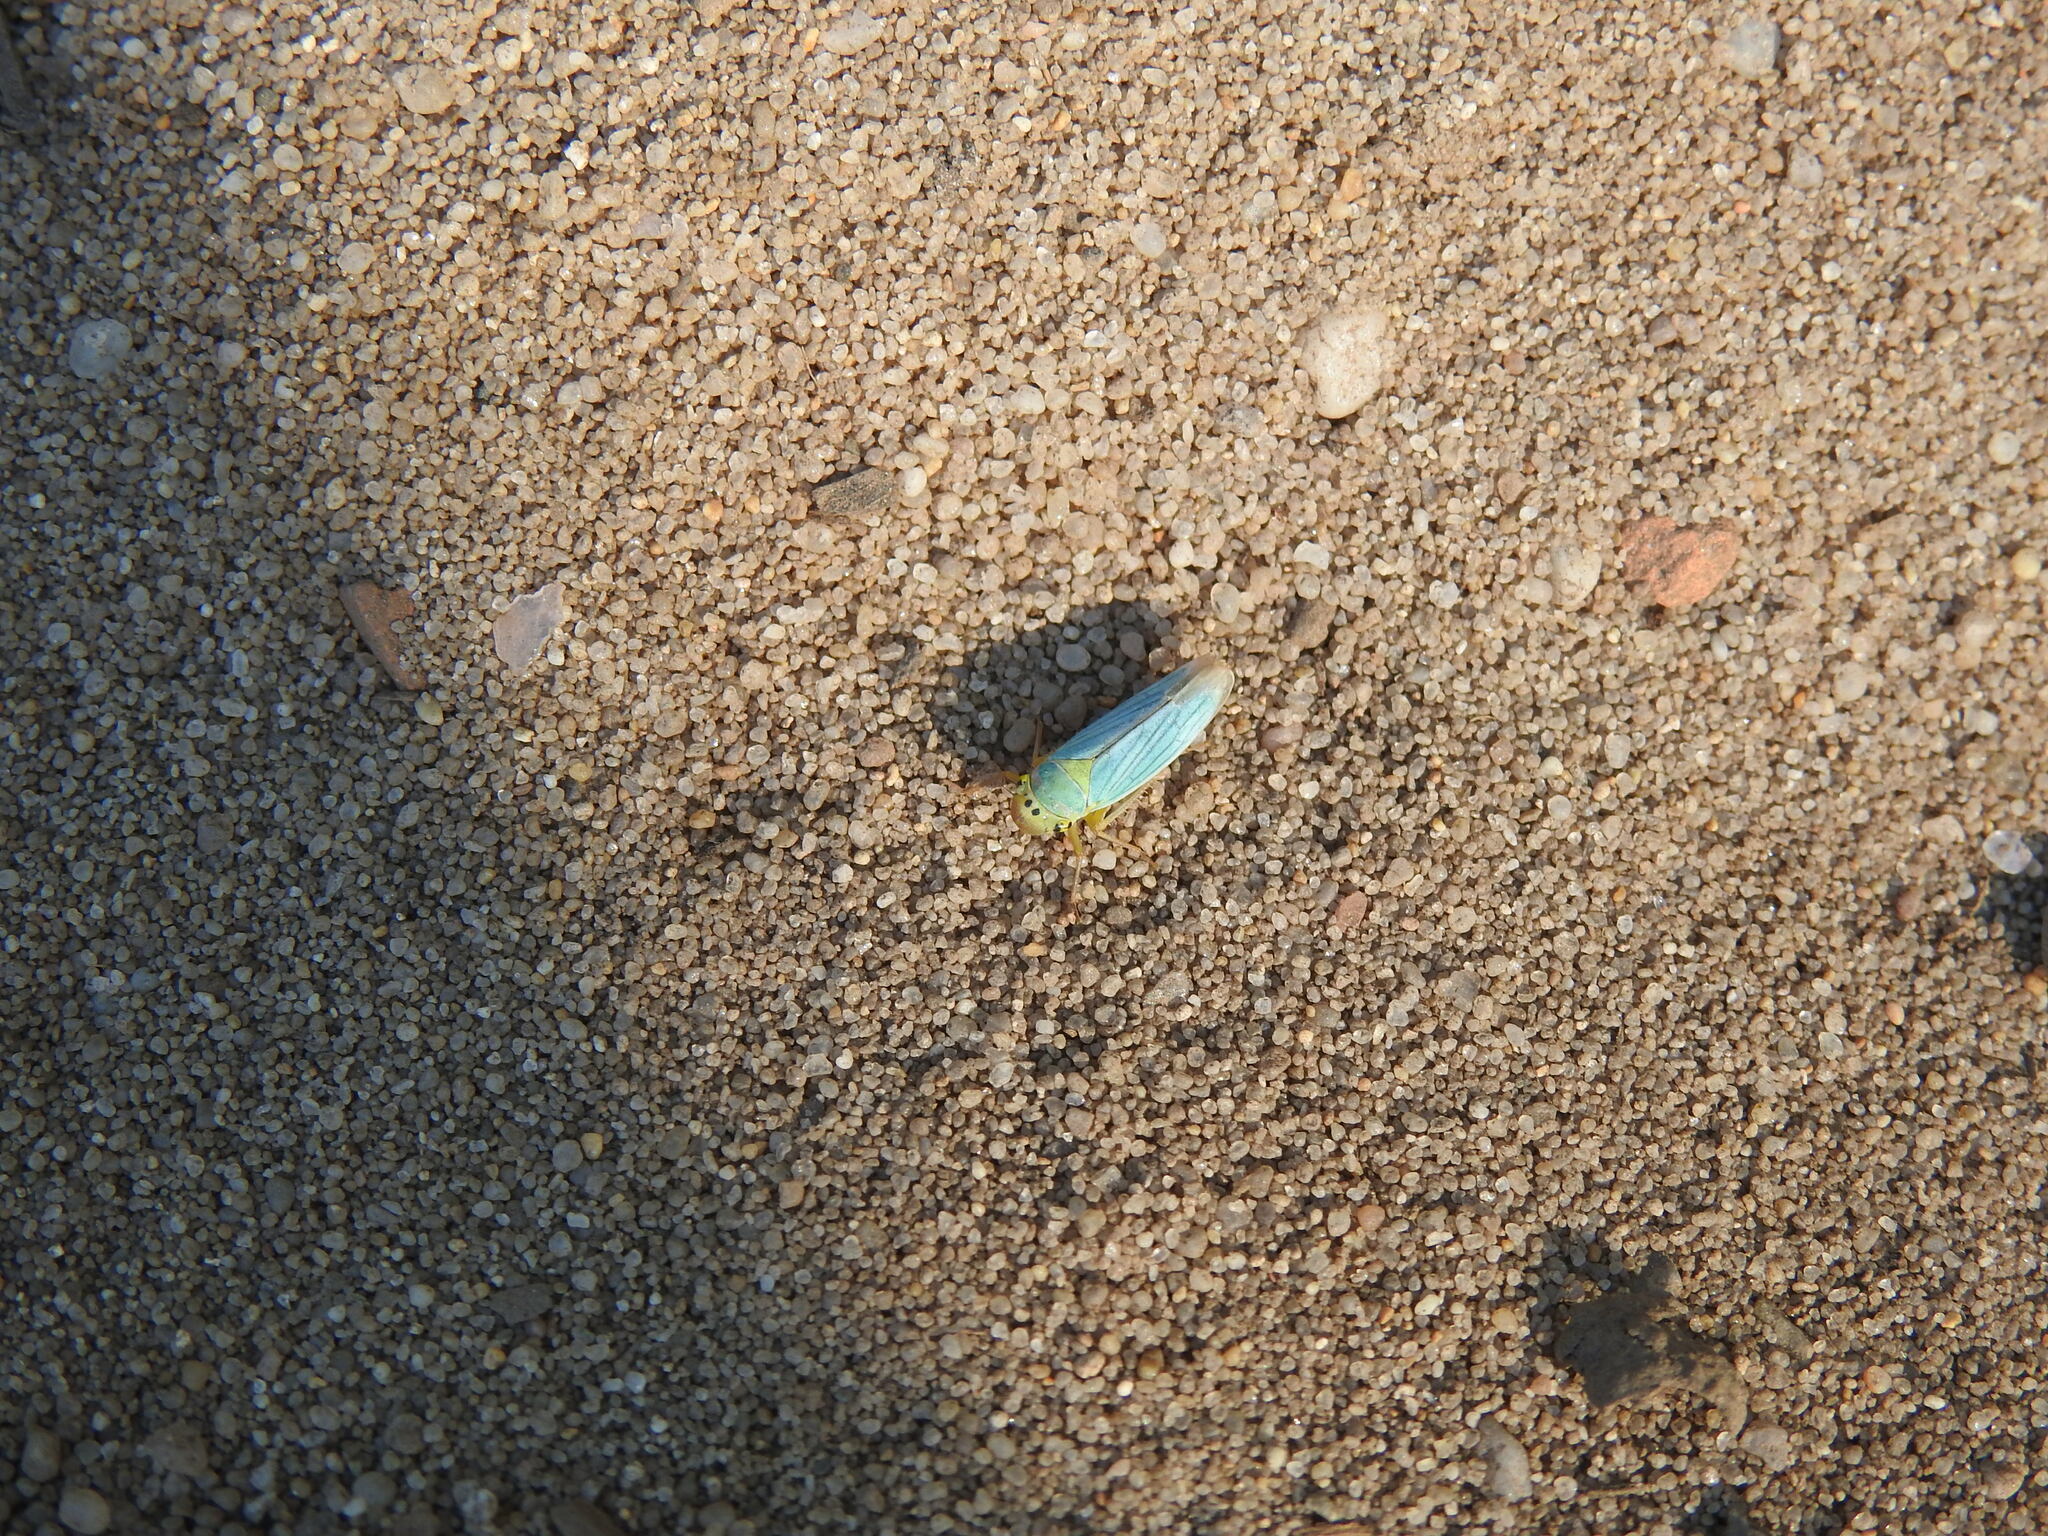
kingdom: Animalia
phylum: Arthropoda
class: Insecta
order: Hemiptera
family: Cicadellidae
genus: Cicadella
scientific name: Cicadella viridis
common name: Leafhopper
